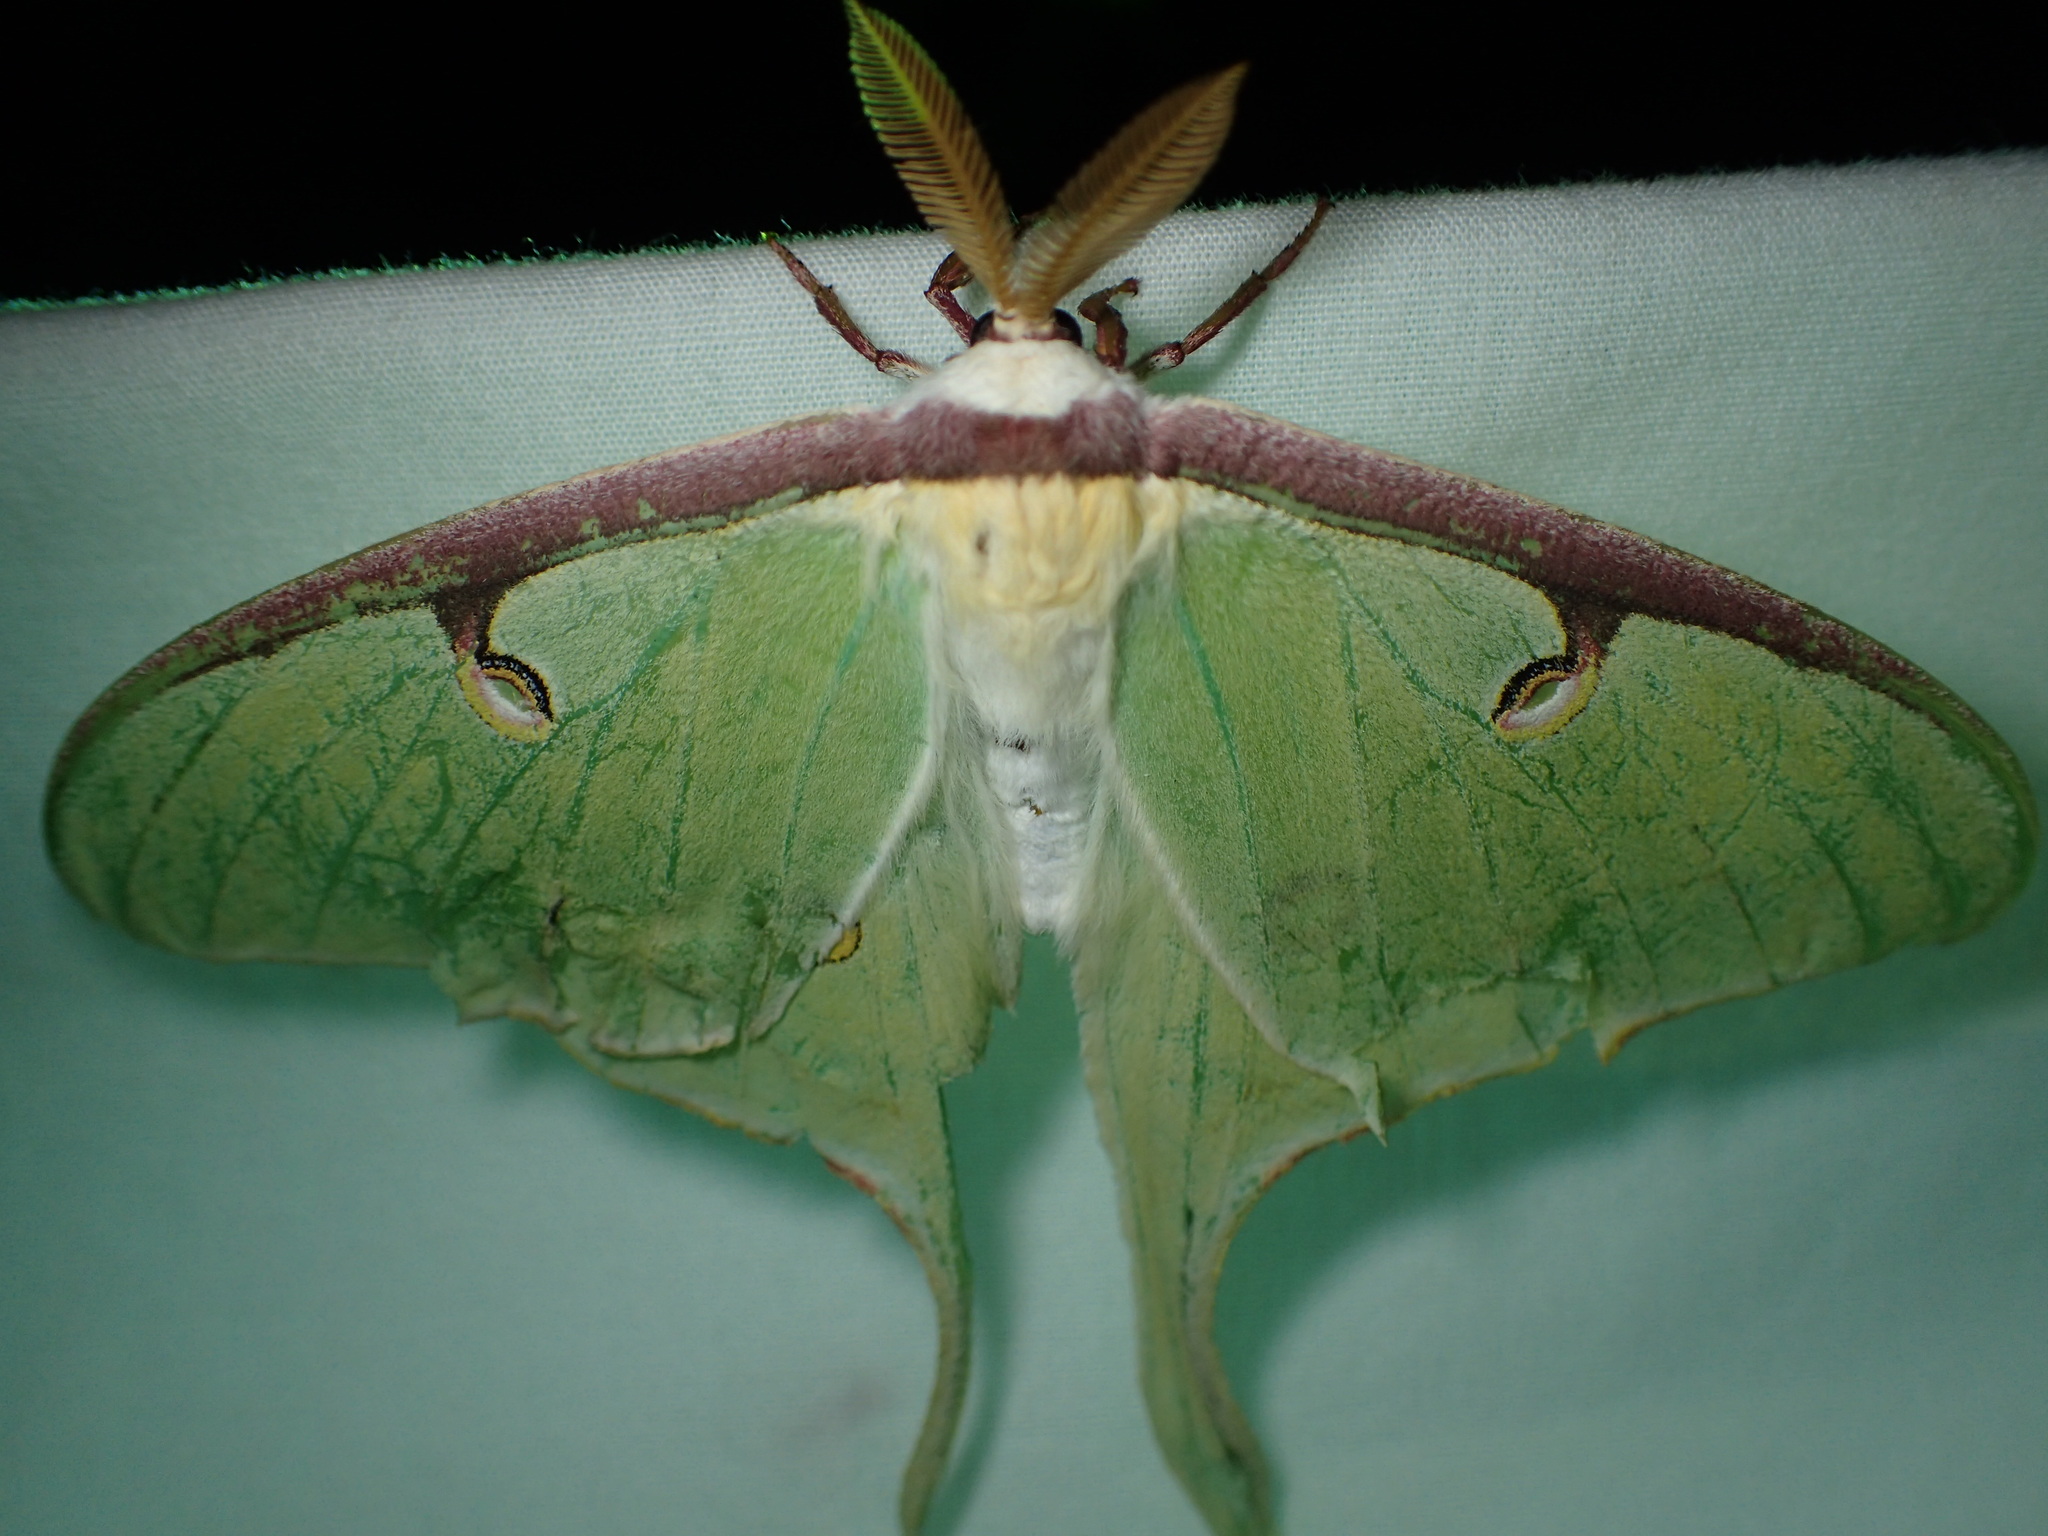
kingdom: Animalia
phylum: Arthropoda
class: Insecta
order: Lepidoptera
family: Saturniidae
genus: Actias
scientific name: Actias luna
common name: Luna moth
